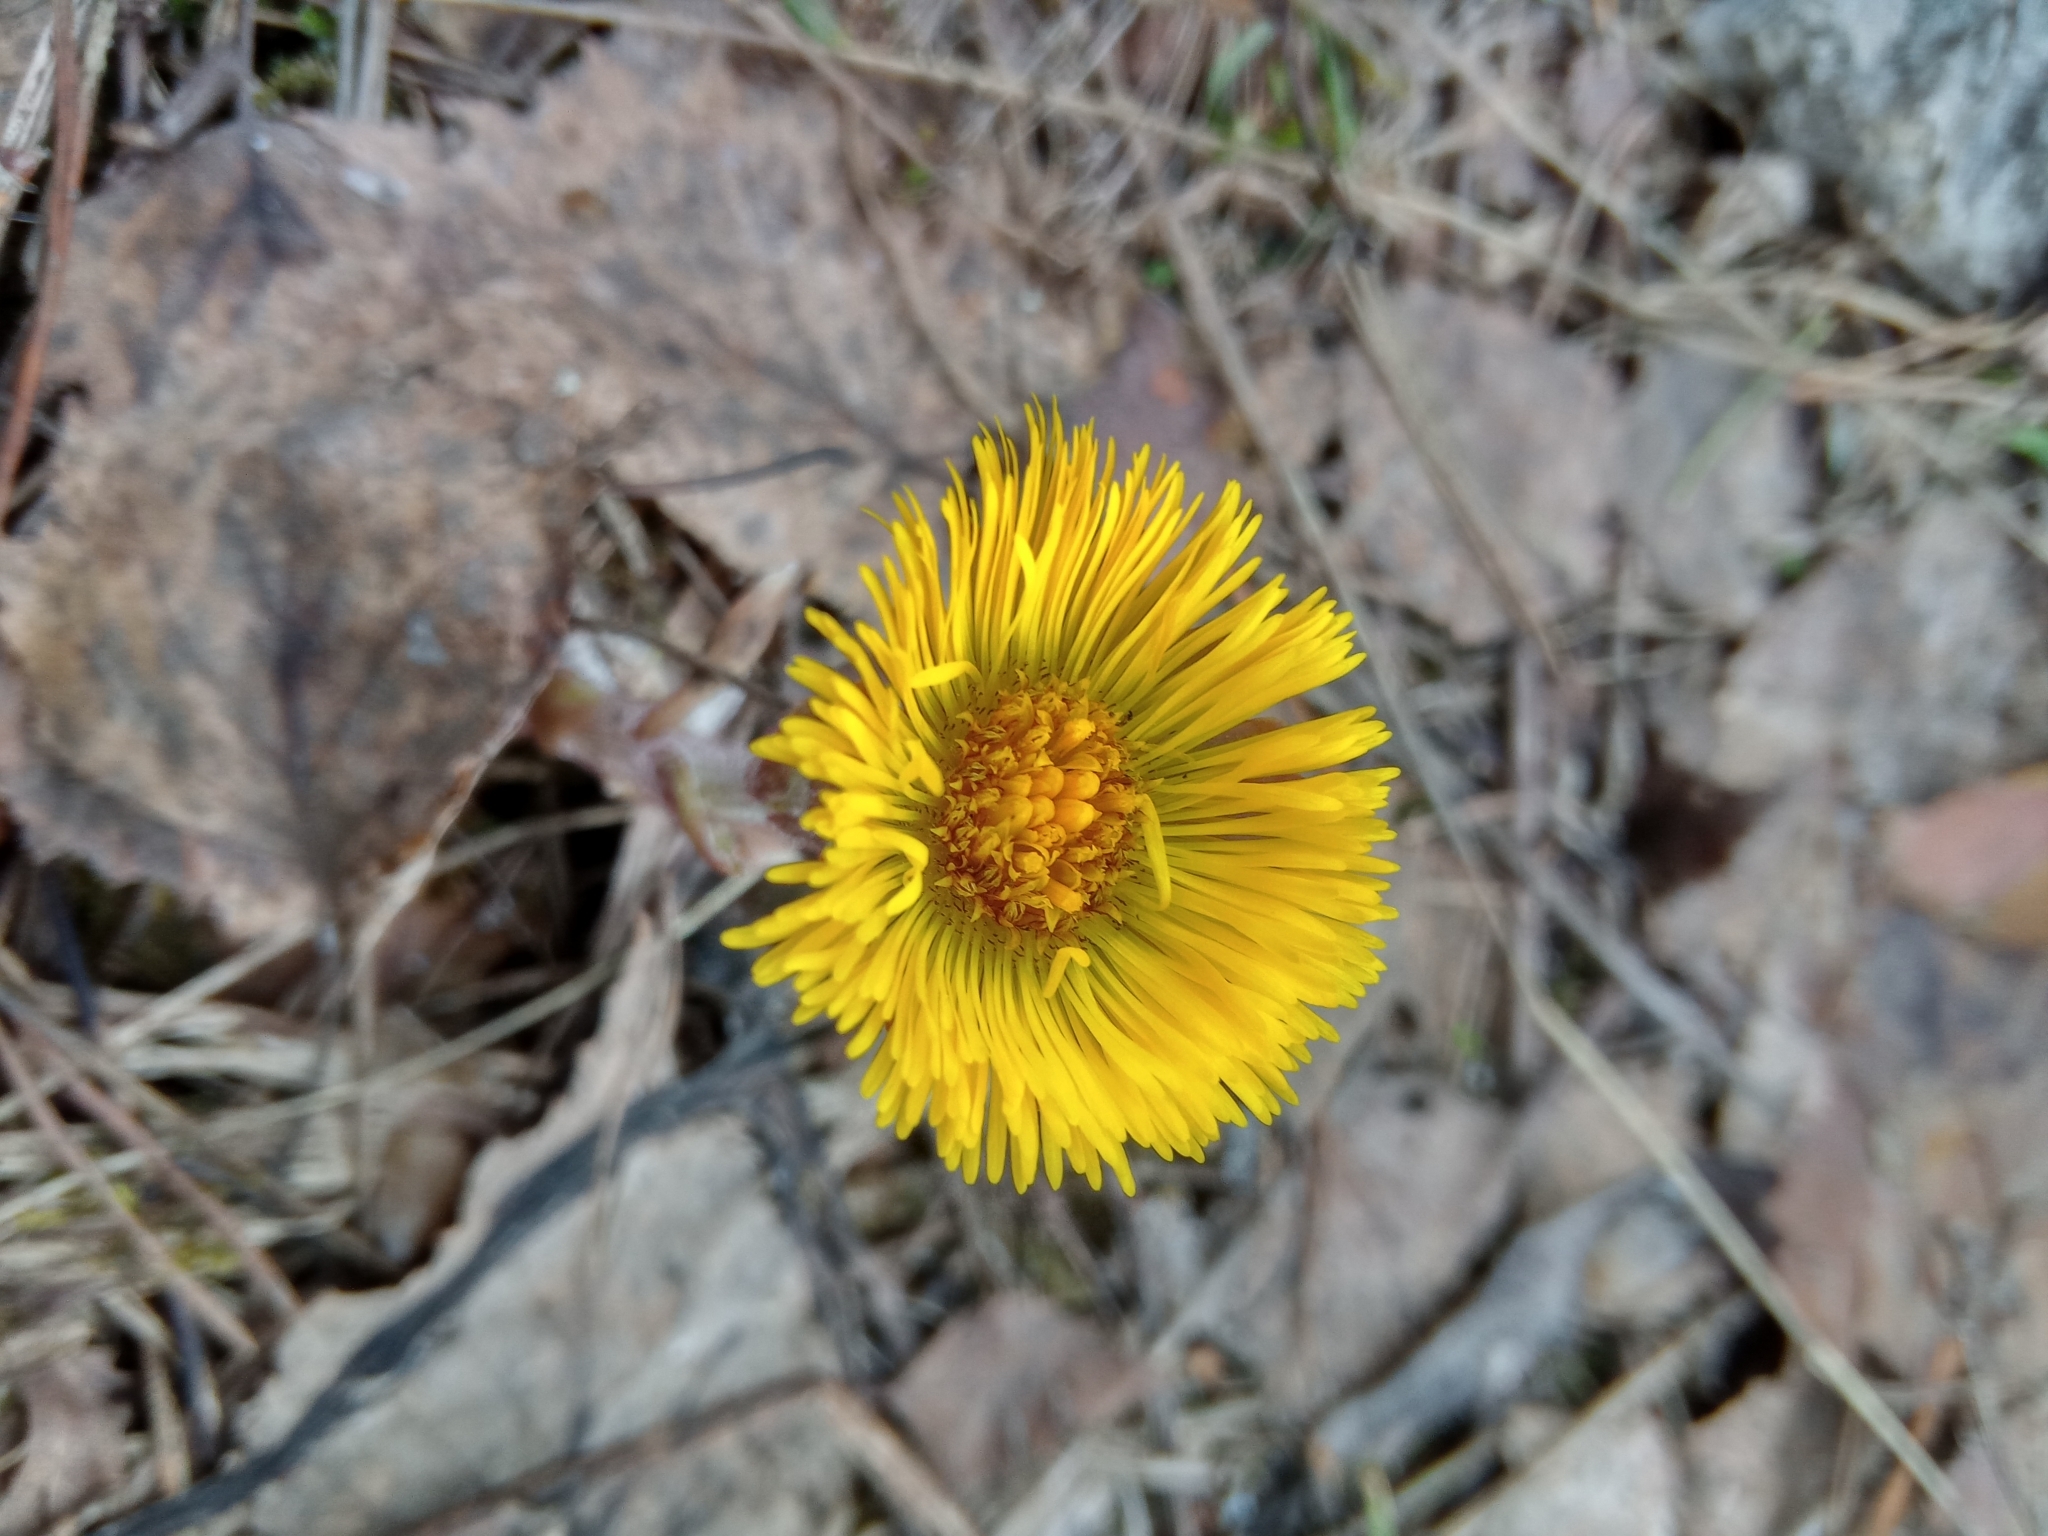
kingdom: Plantae
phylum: Tracheophyta
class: Magnoliopsida
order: Asterales
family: Asteraceae
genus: Tussilago
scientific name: Tussilago farfara
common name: Coltsfoot
